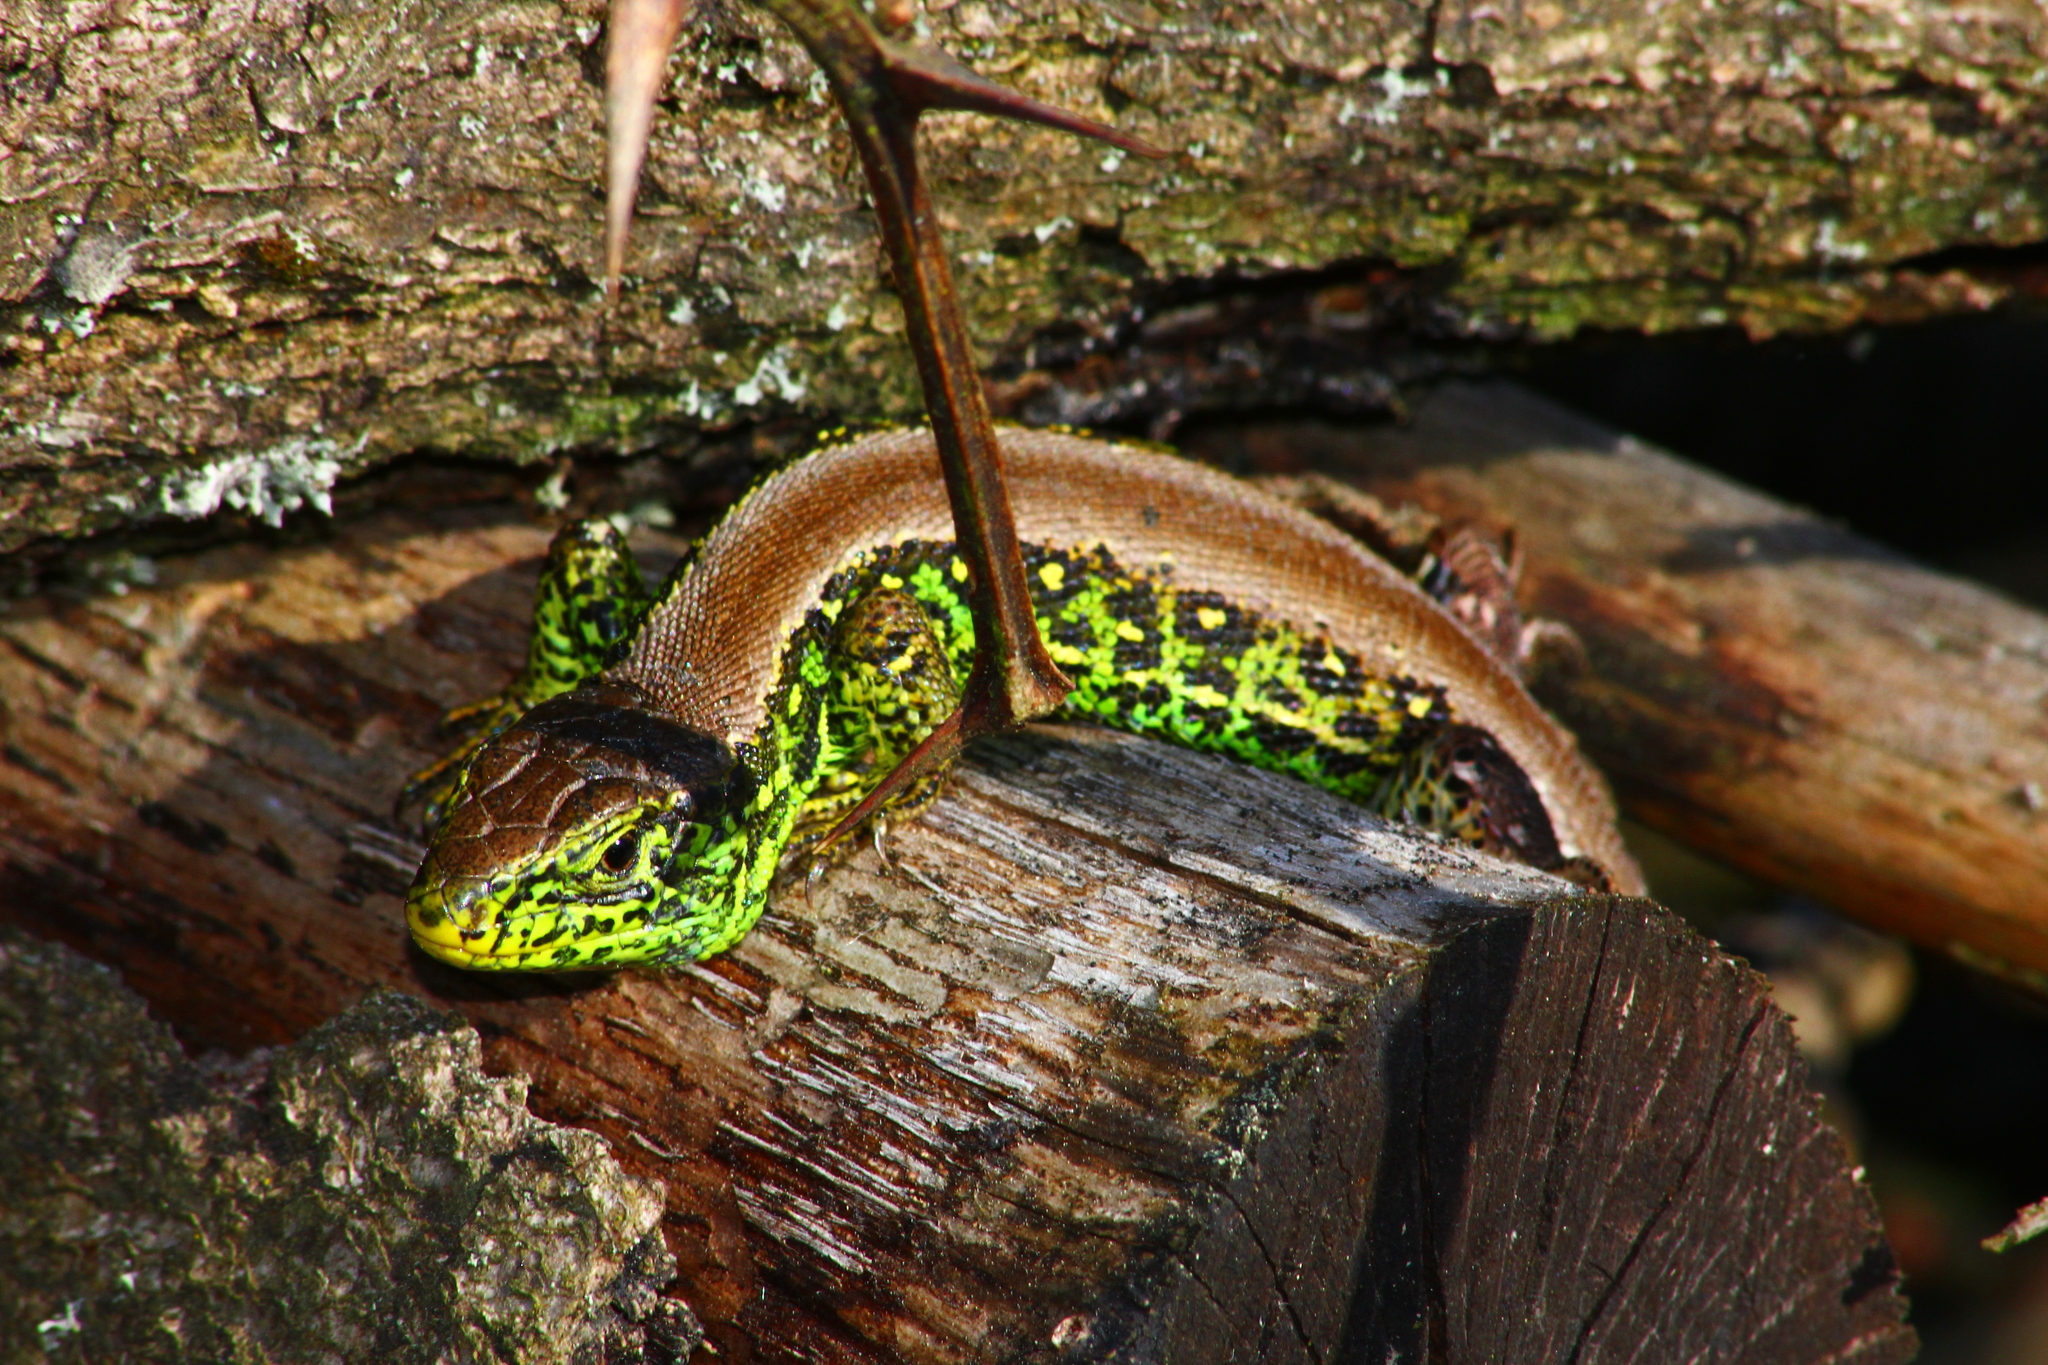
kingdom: Animalia
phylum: Chordata
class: Squamata
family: Lacertidae
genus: Lacerta
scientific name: Lacerta agilis
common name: Sand lizard
